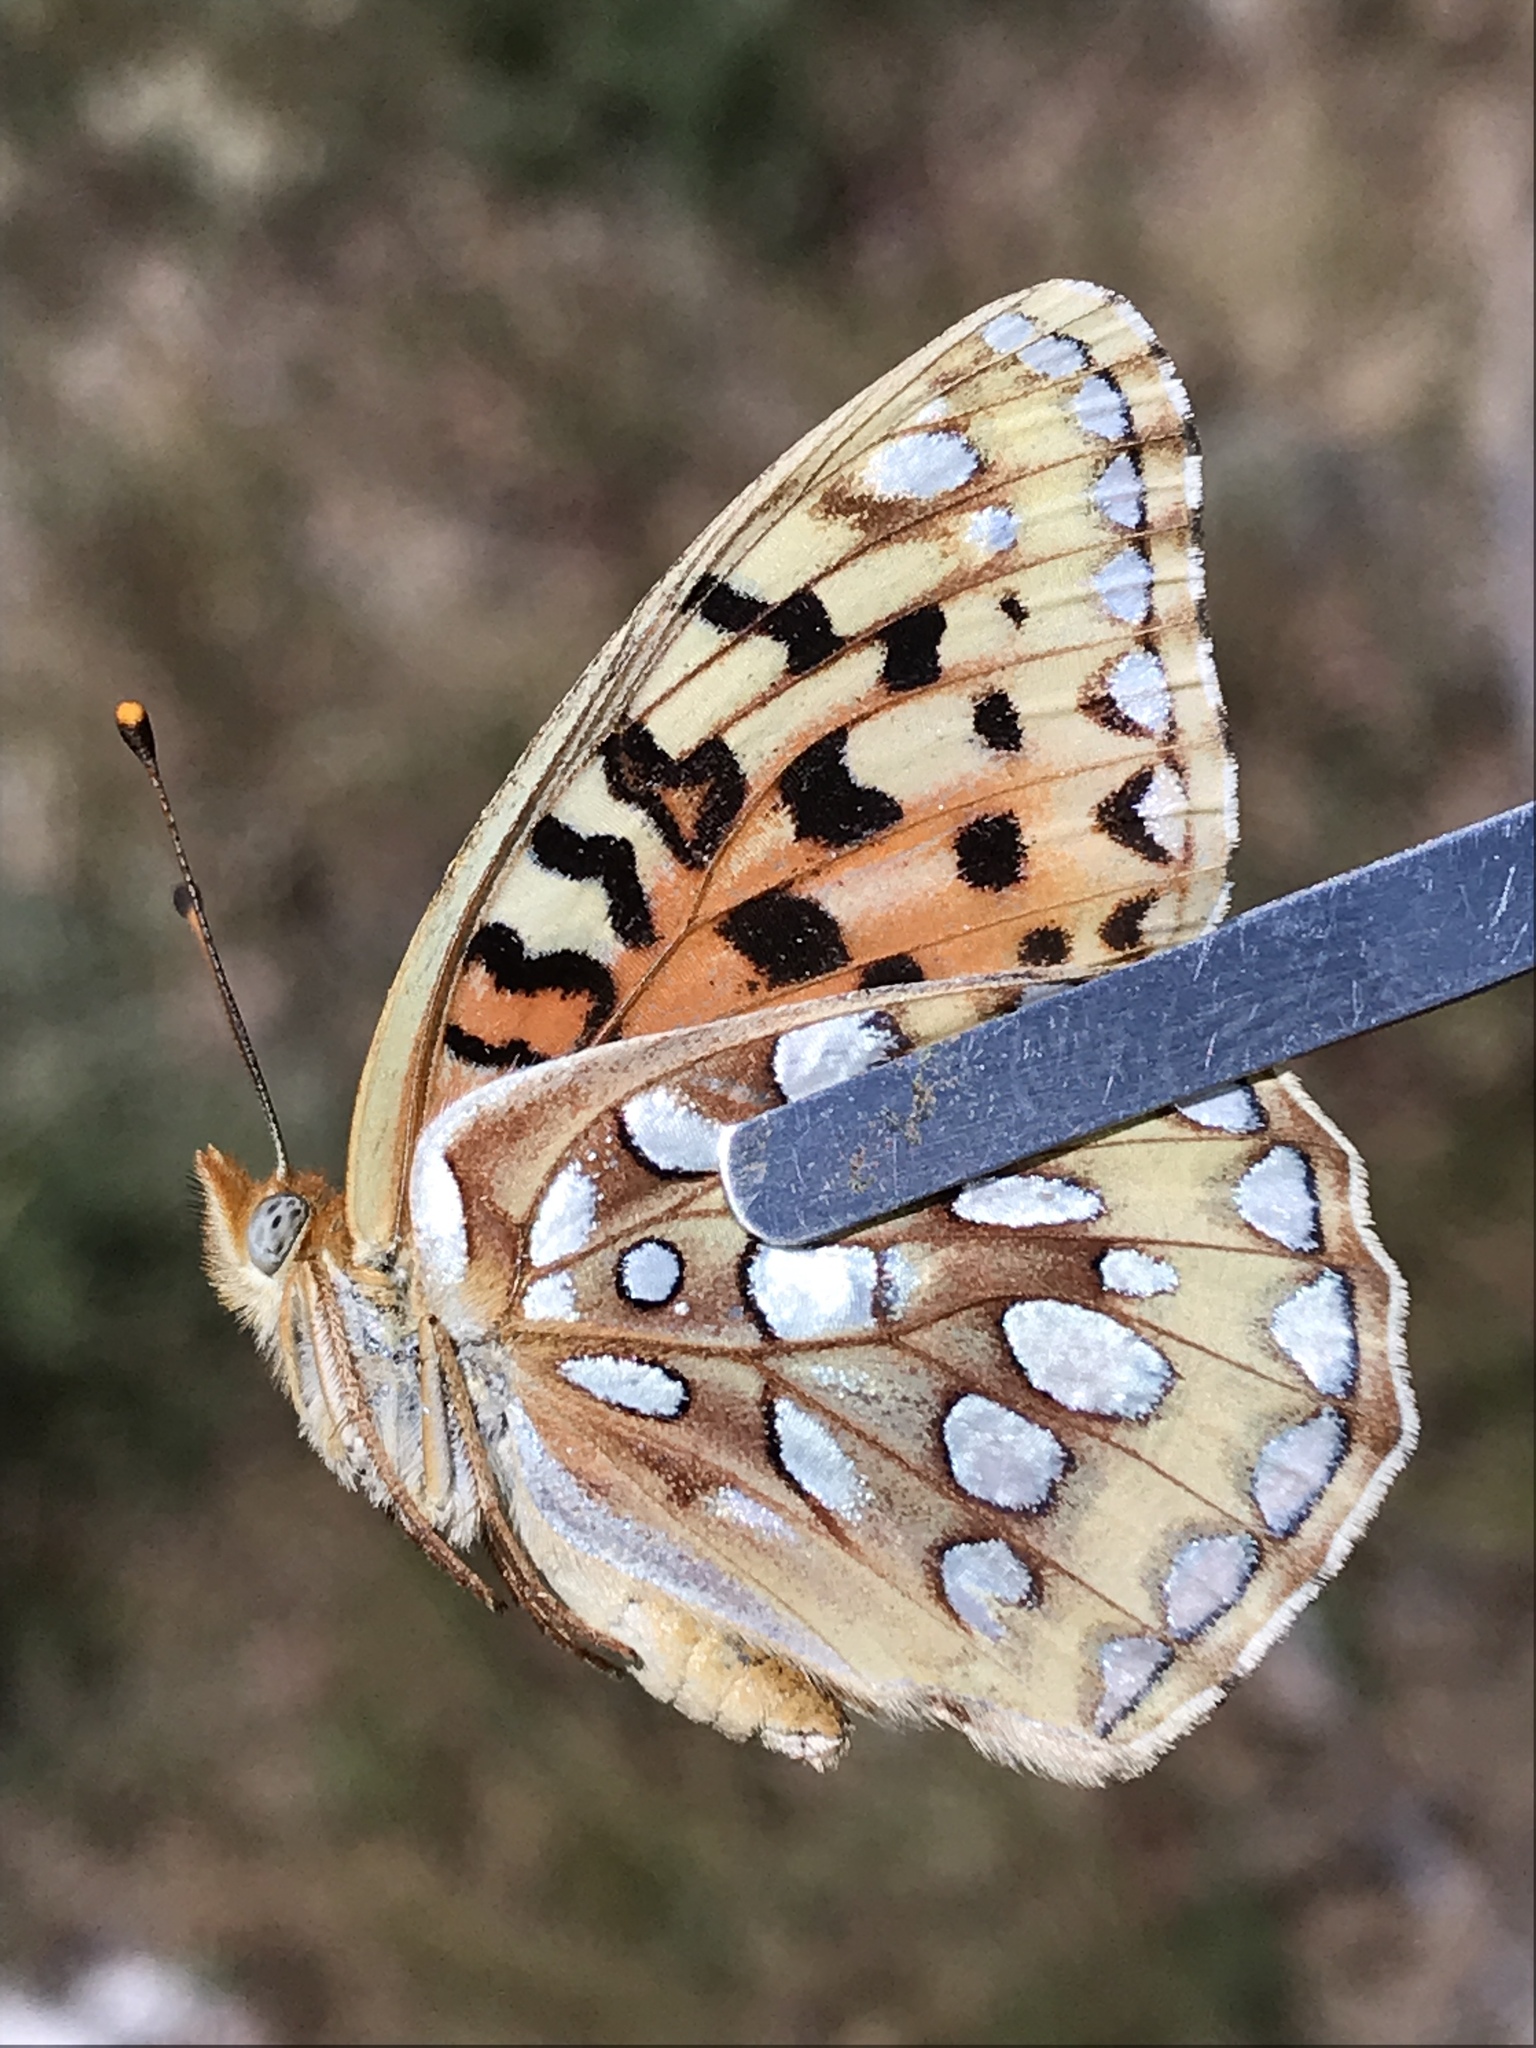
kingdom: Animalia
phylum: Arthropoda
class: Insecta
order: Lepidoptera
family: Nymphalidae
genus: Speyeria
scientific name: Speyeria zerene
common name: Zerene fritillary
